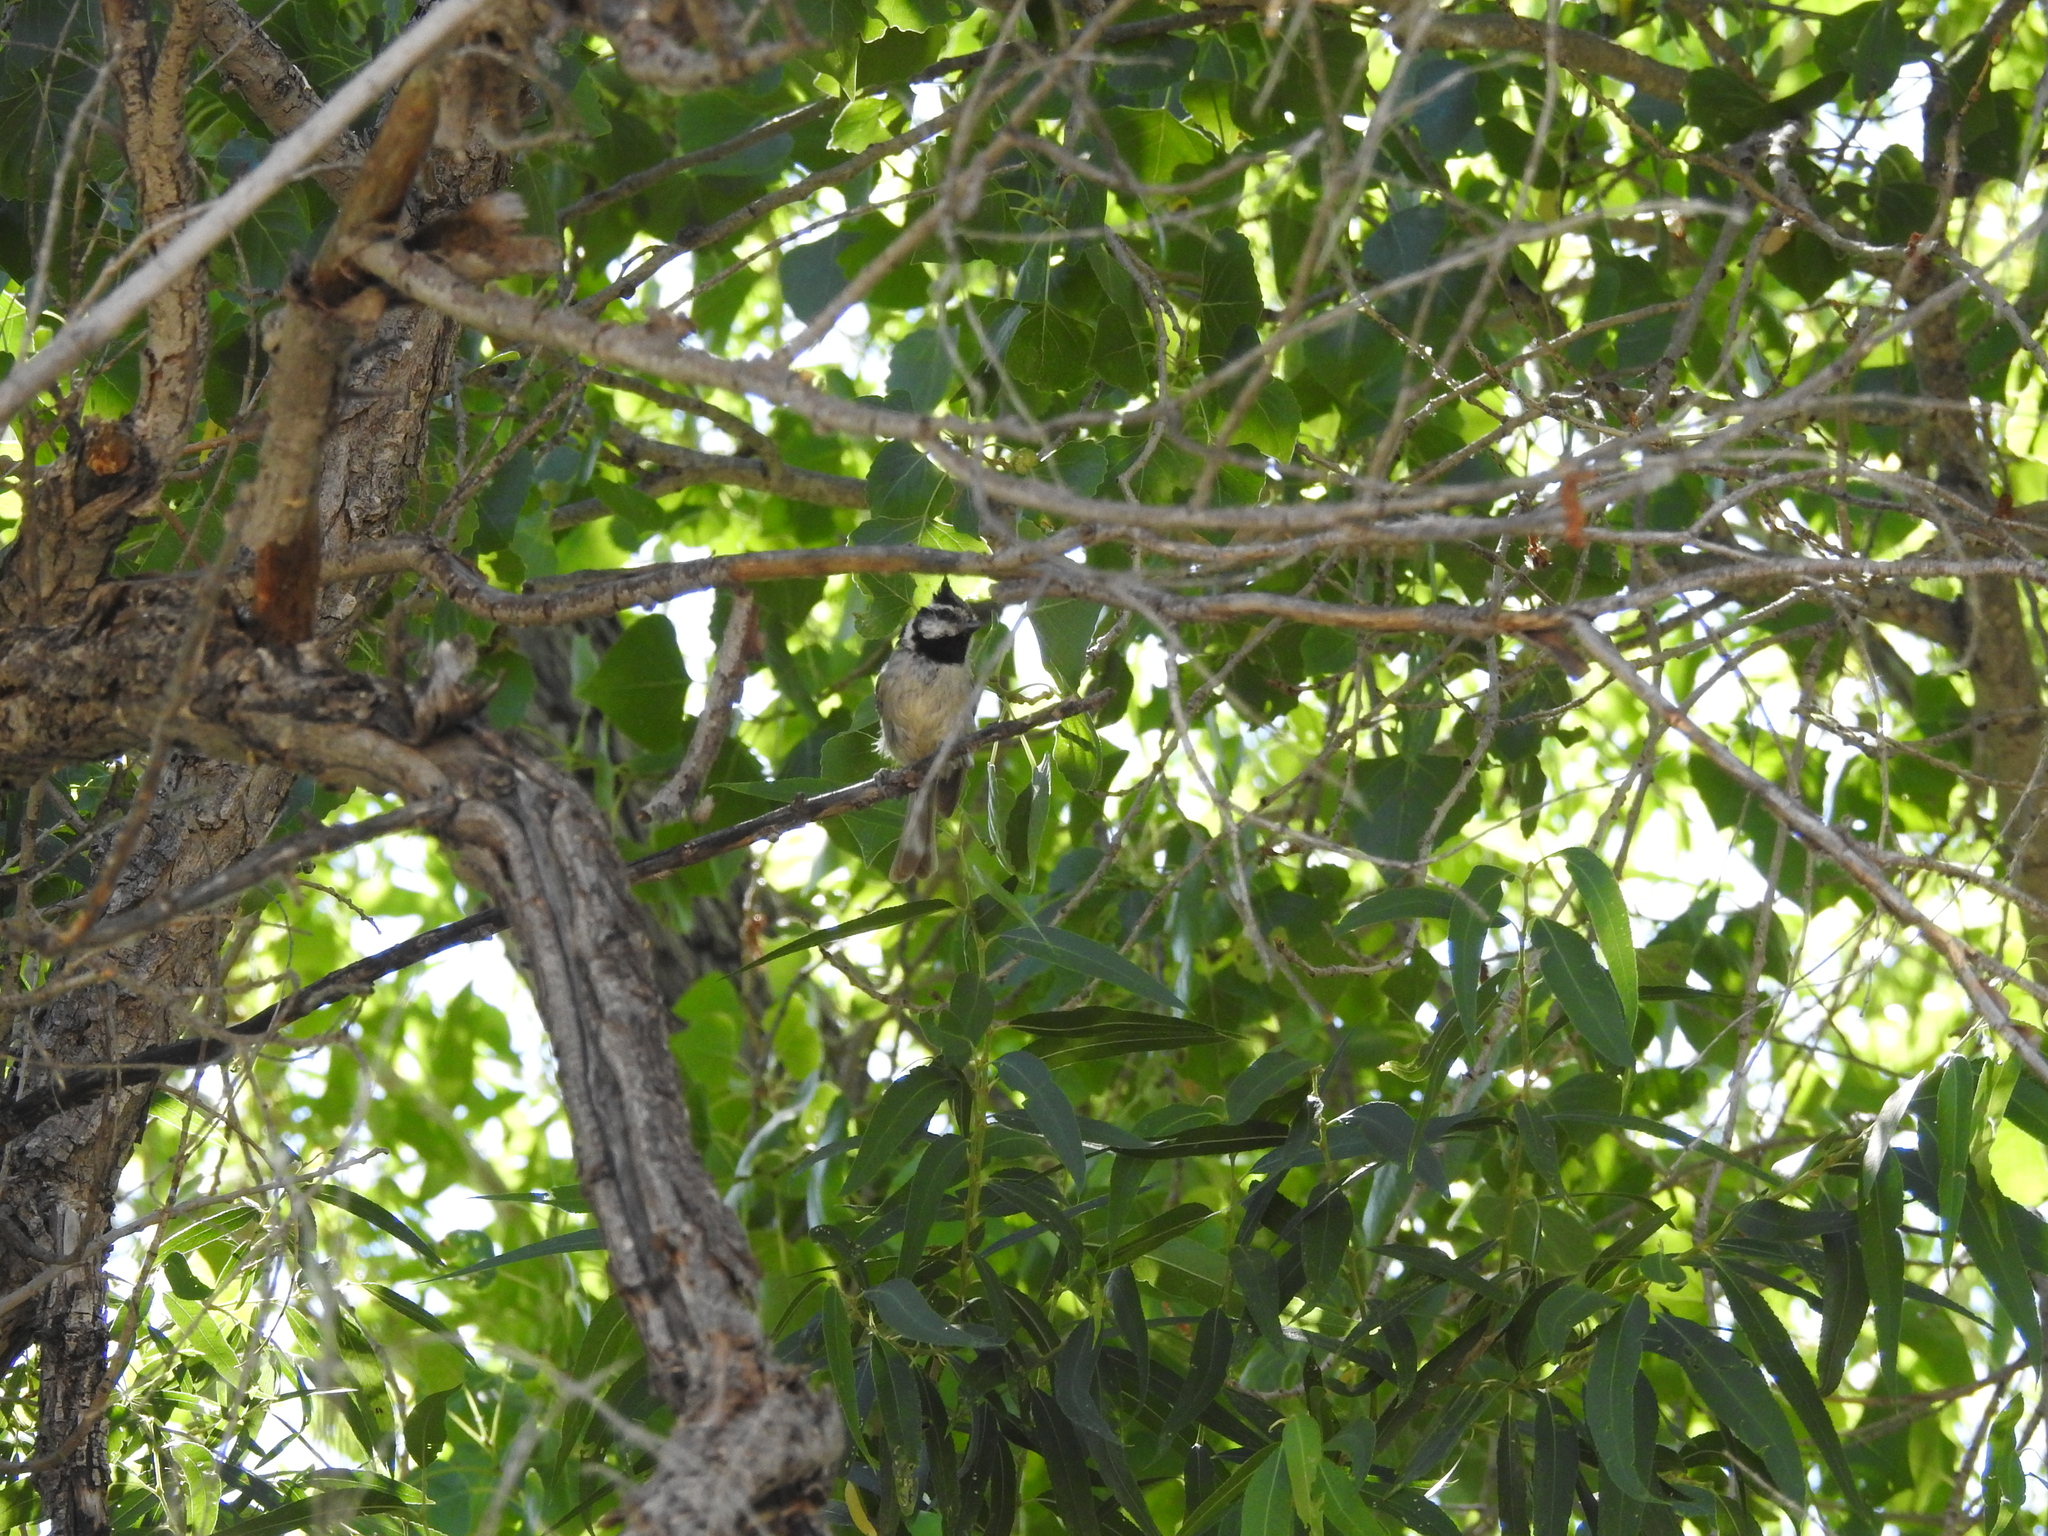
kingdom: Animalia
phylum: Chordata
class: Aves
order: Passeriformes
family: Paridae
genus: Baeolophus
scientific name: Baeolophus wollweberi
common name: Bridled titmouse
